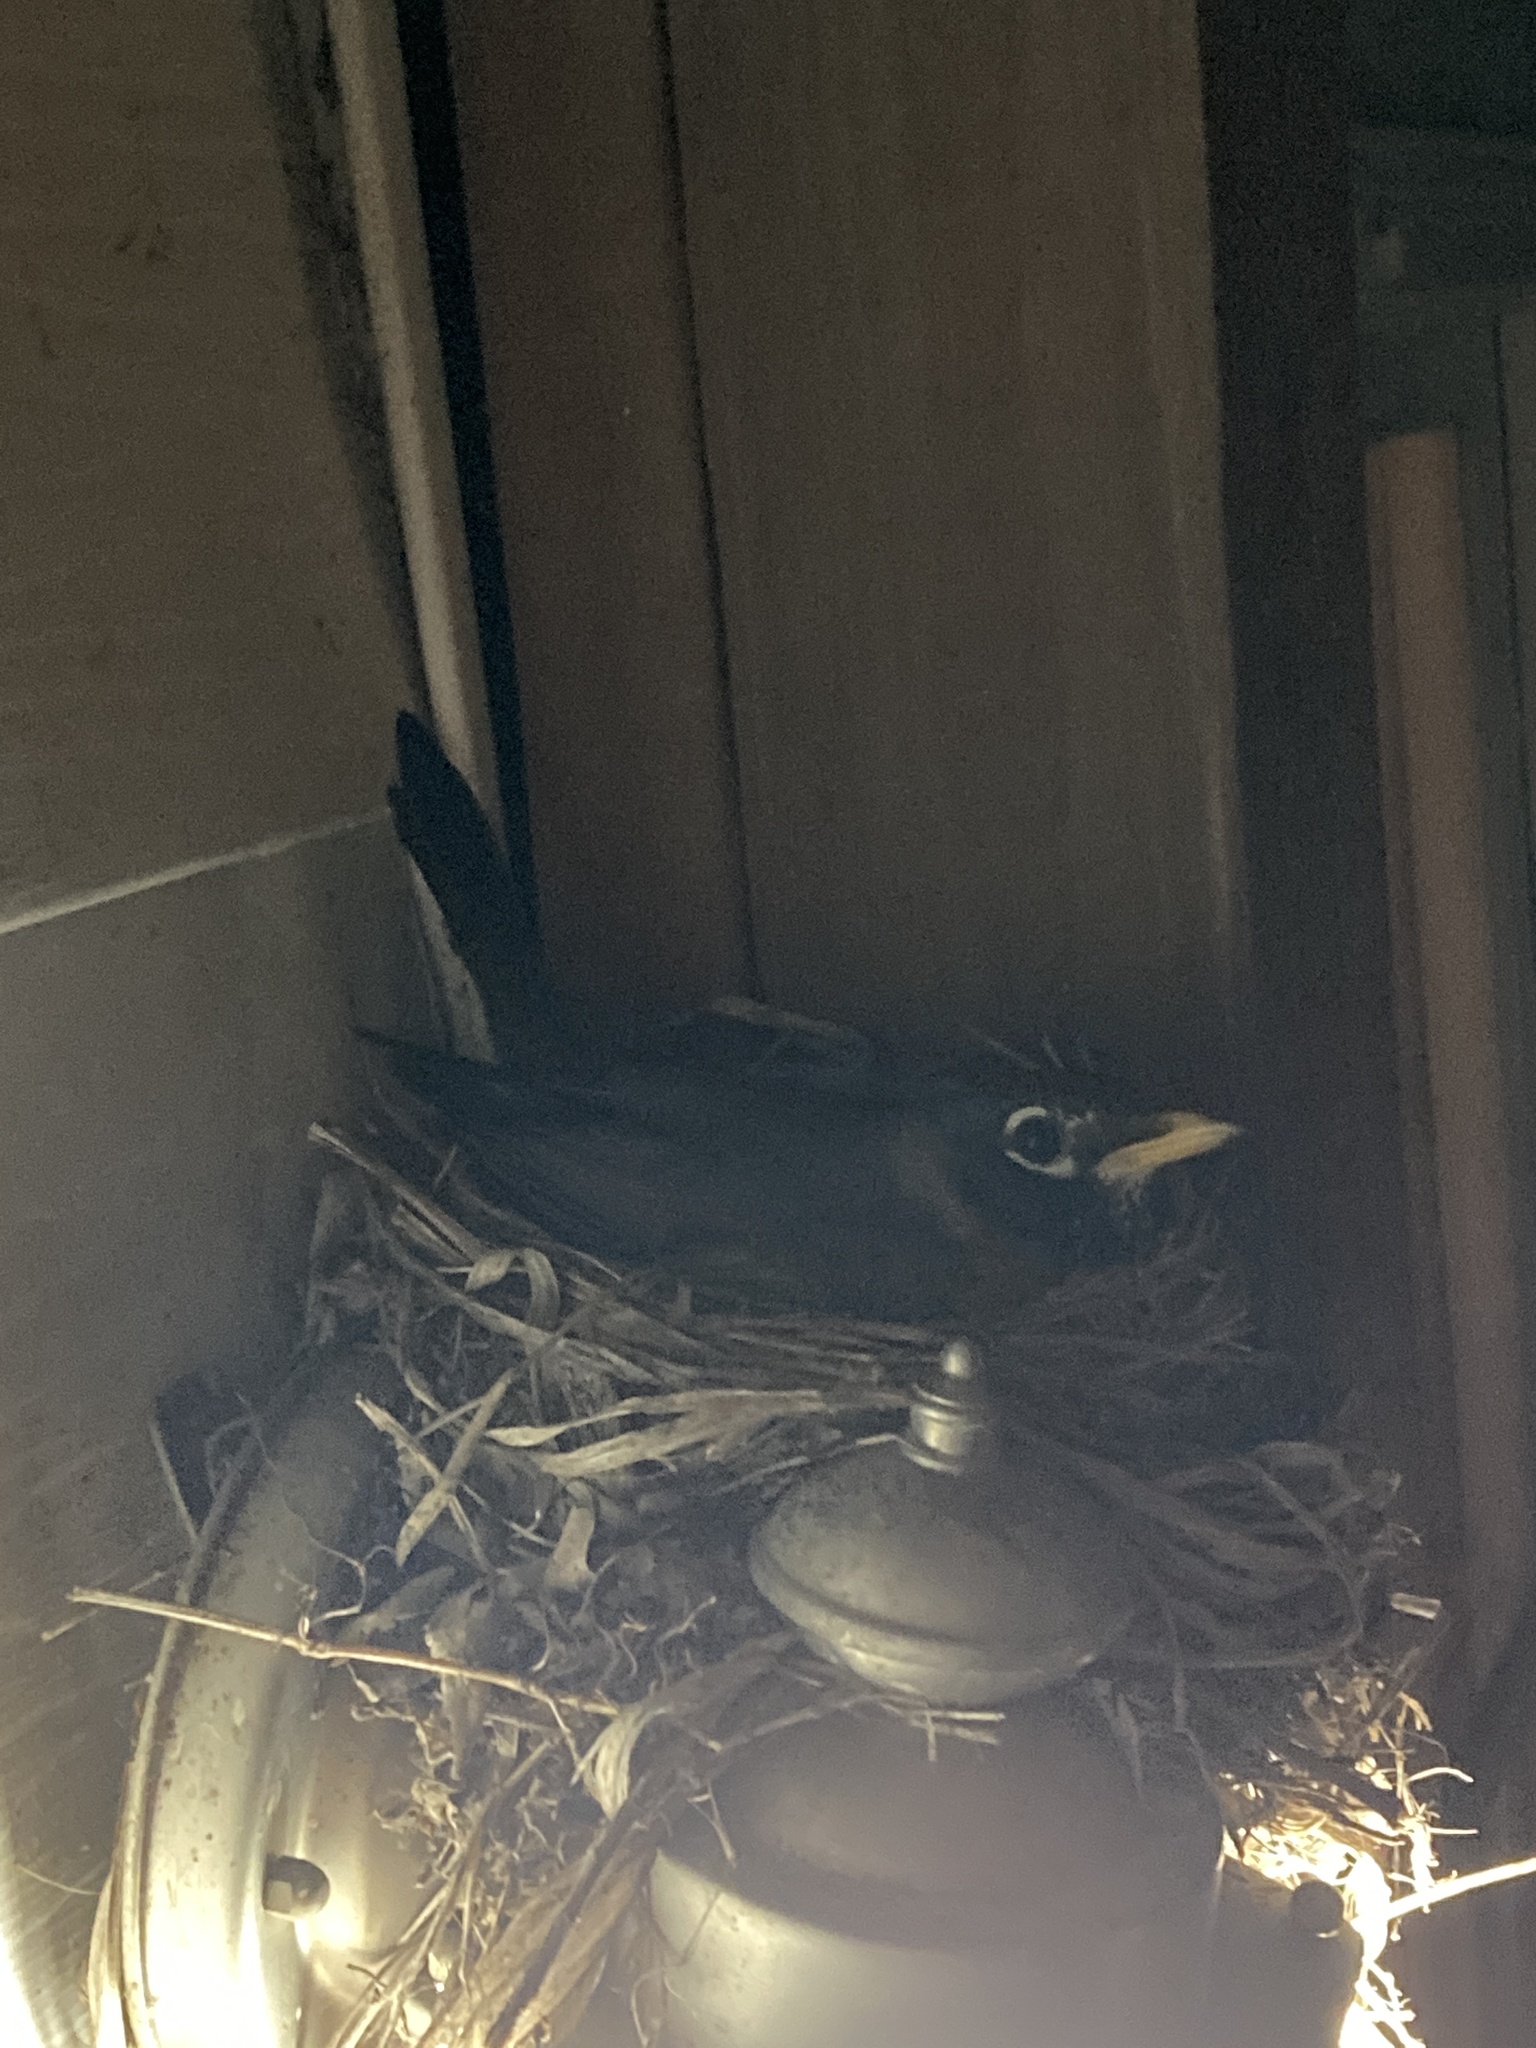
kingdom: Animalia
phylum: Chordata
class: Aves
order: Passeriformes
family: Turdidae
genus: Turdus
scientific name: Turdus migratorius
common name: American robin
